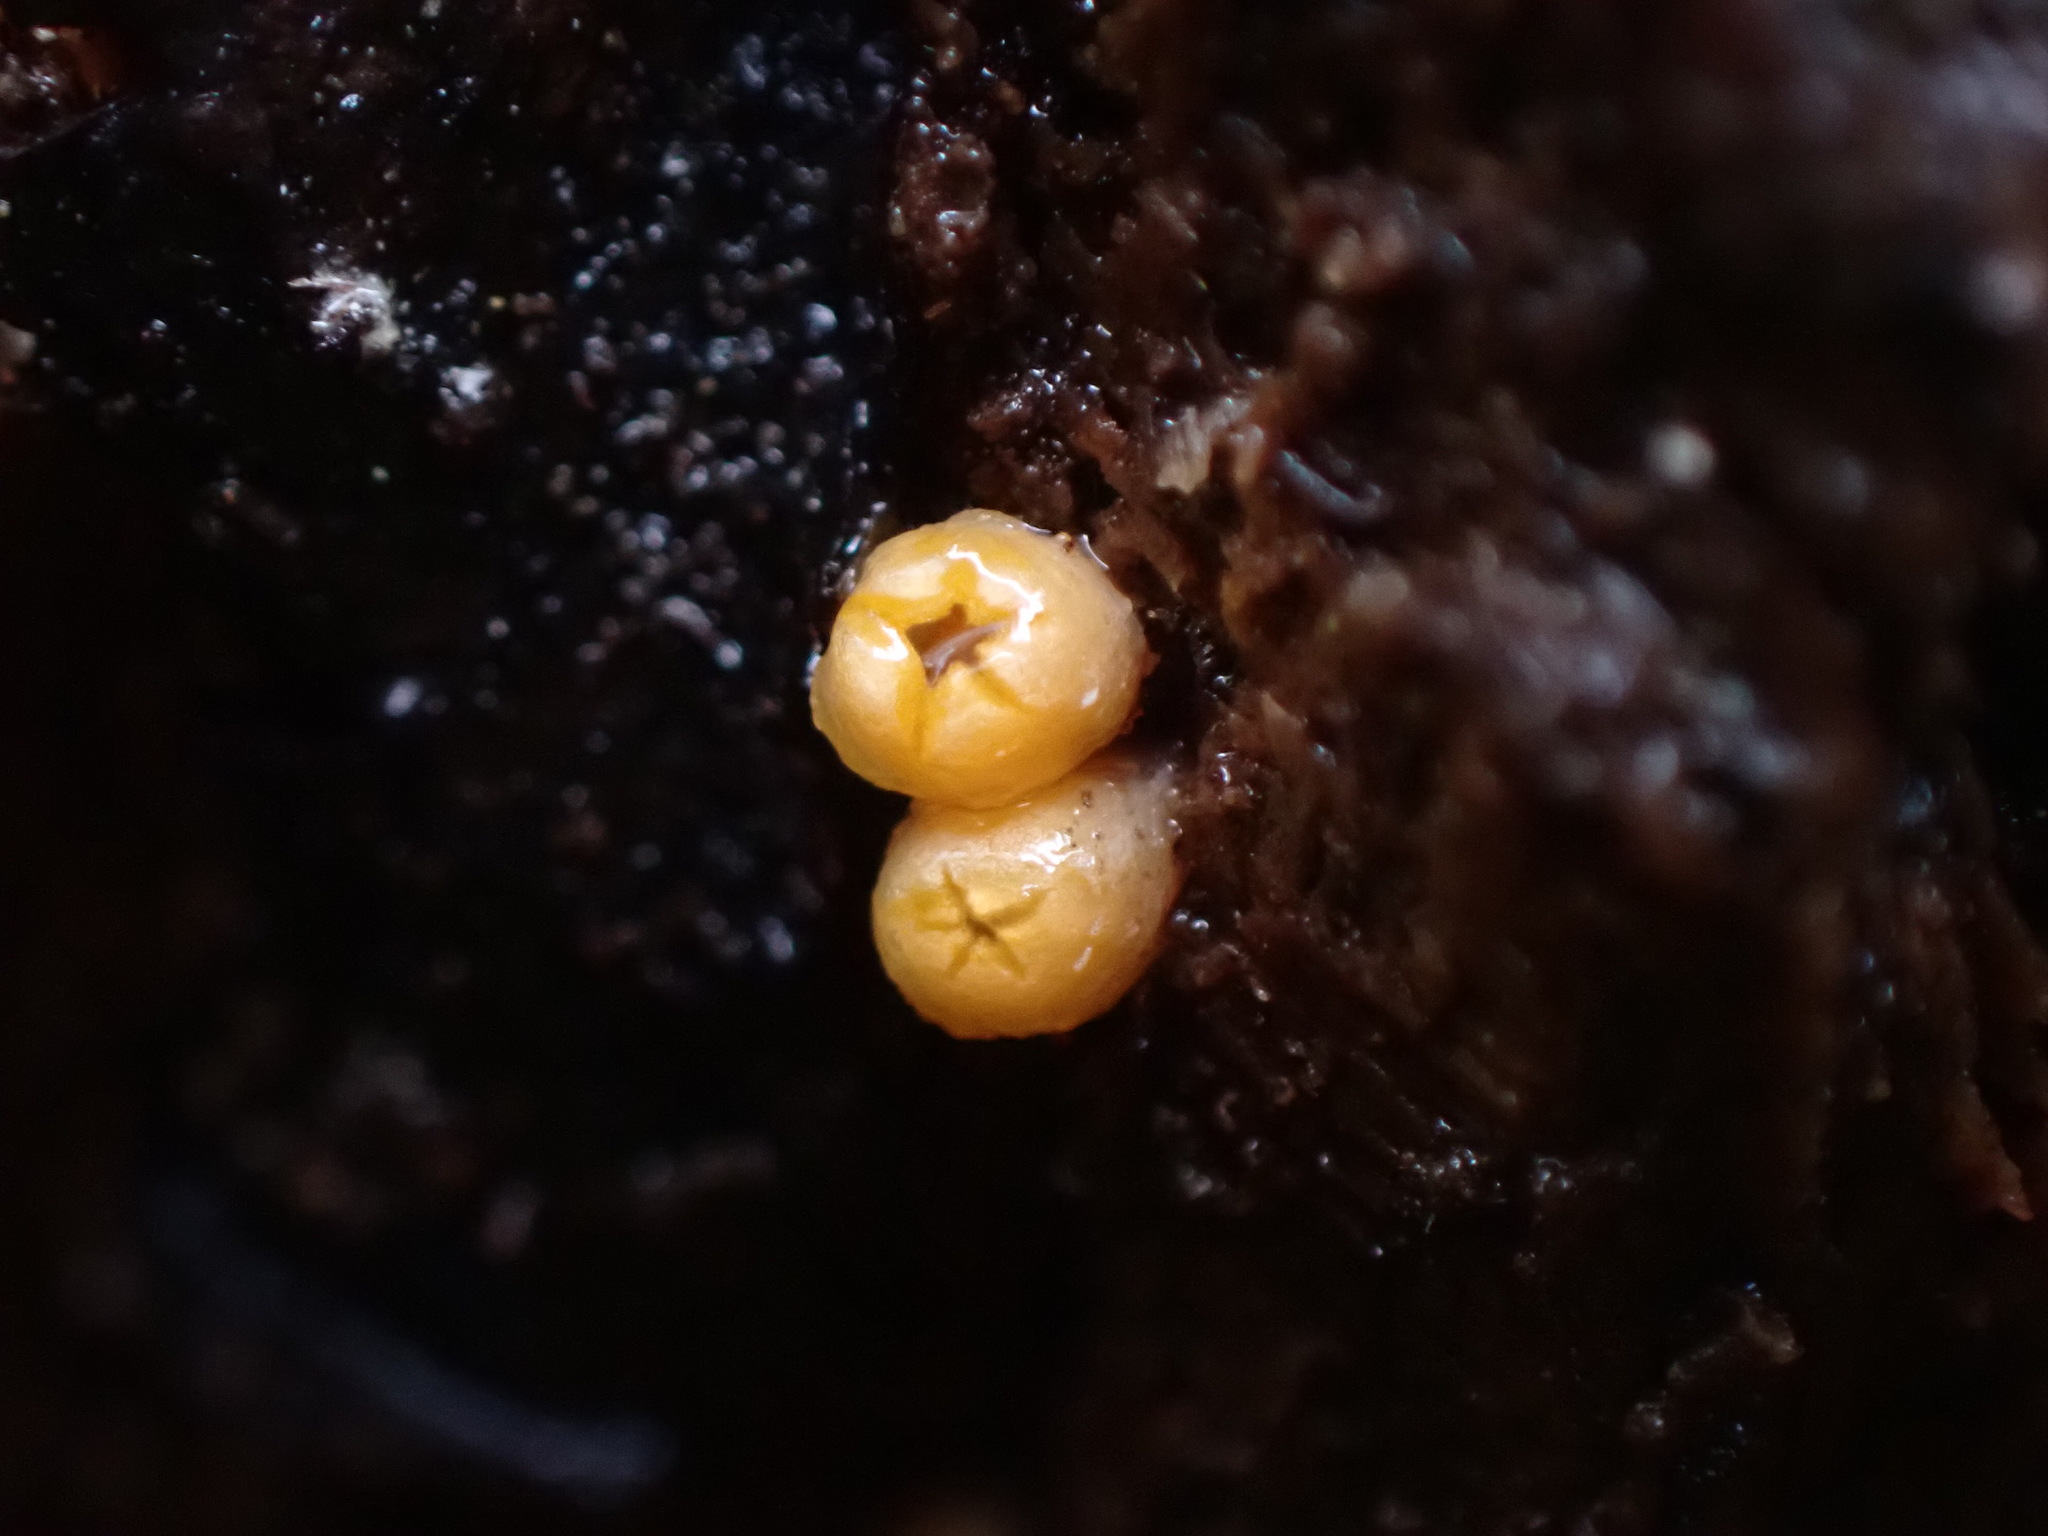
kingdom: Fungi
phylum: Basidiomycota
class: Agaricomycetes
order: Geastrales
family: Geastraceae
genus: Sphaerobolus
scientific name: Sphaerobolus stellatus
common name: Cannon fungus
